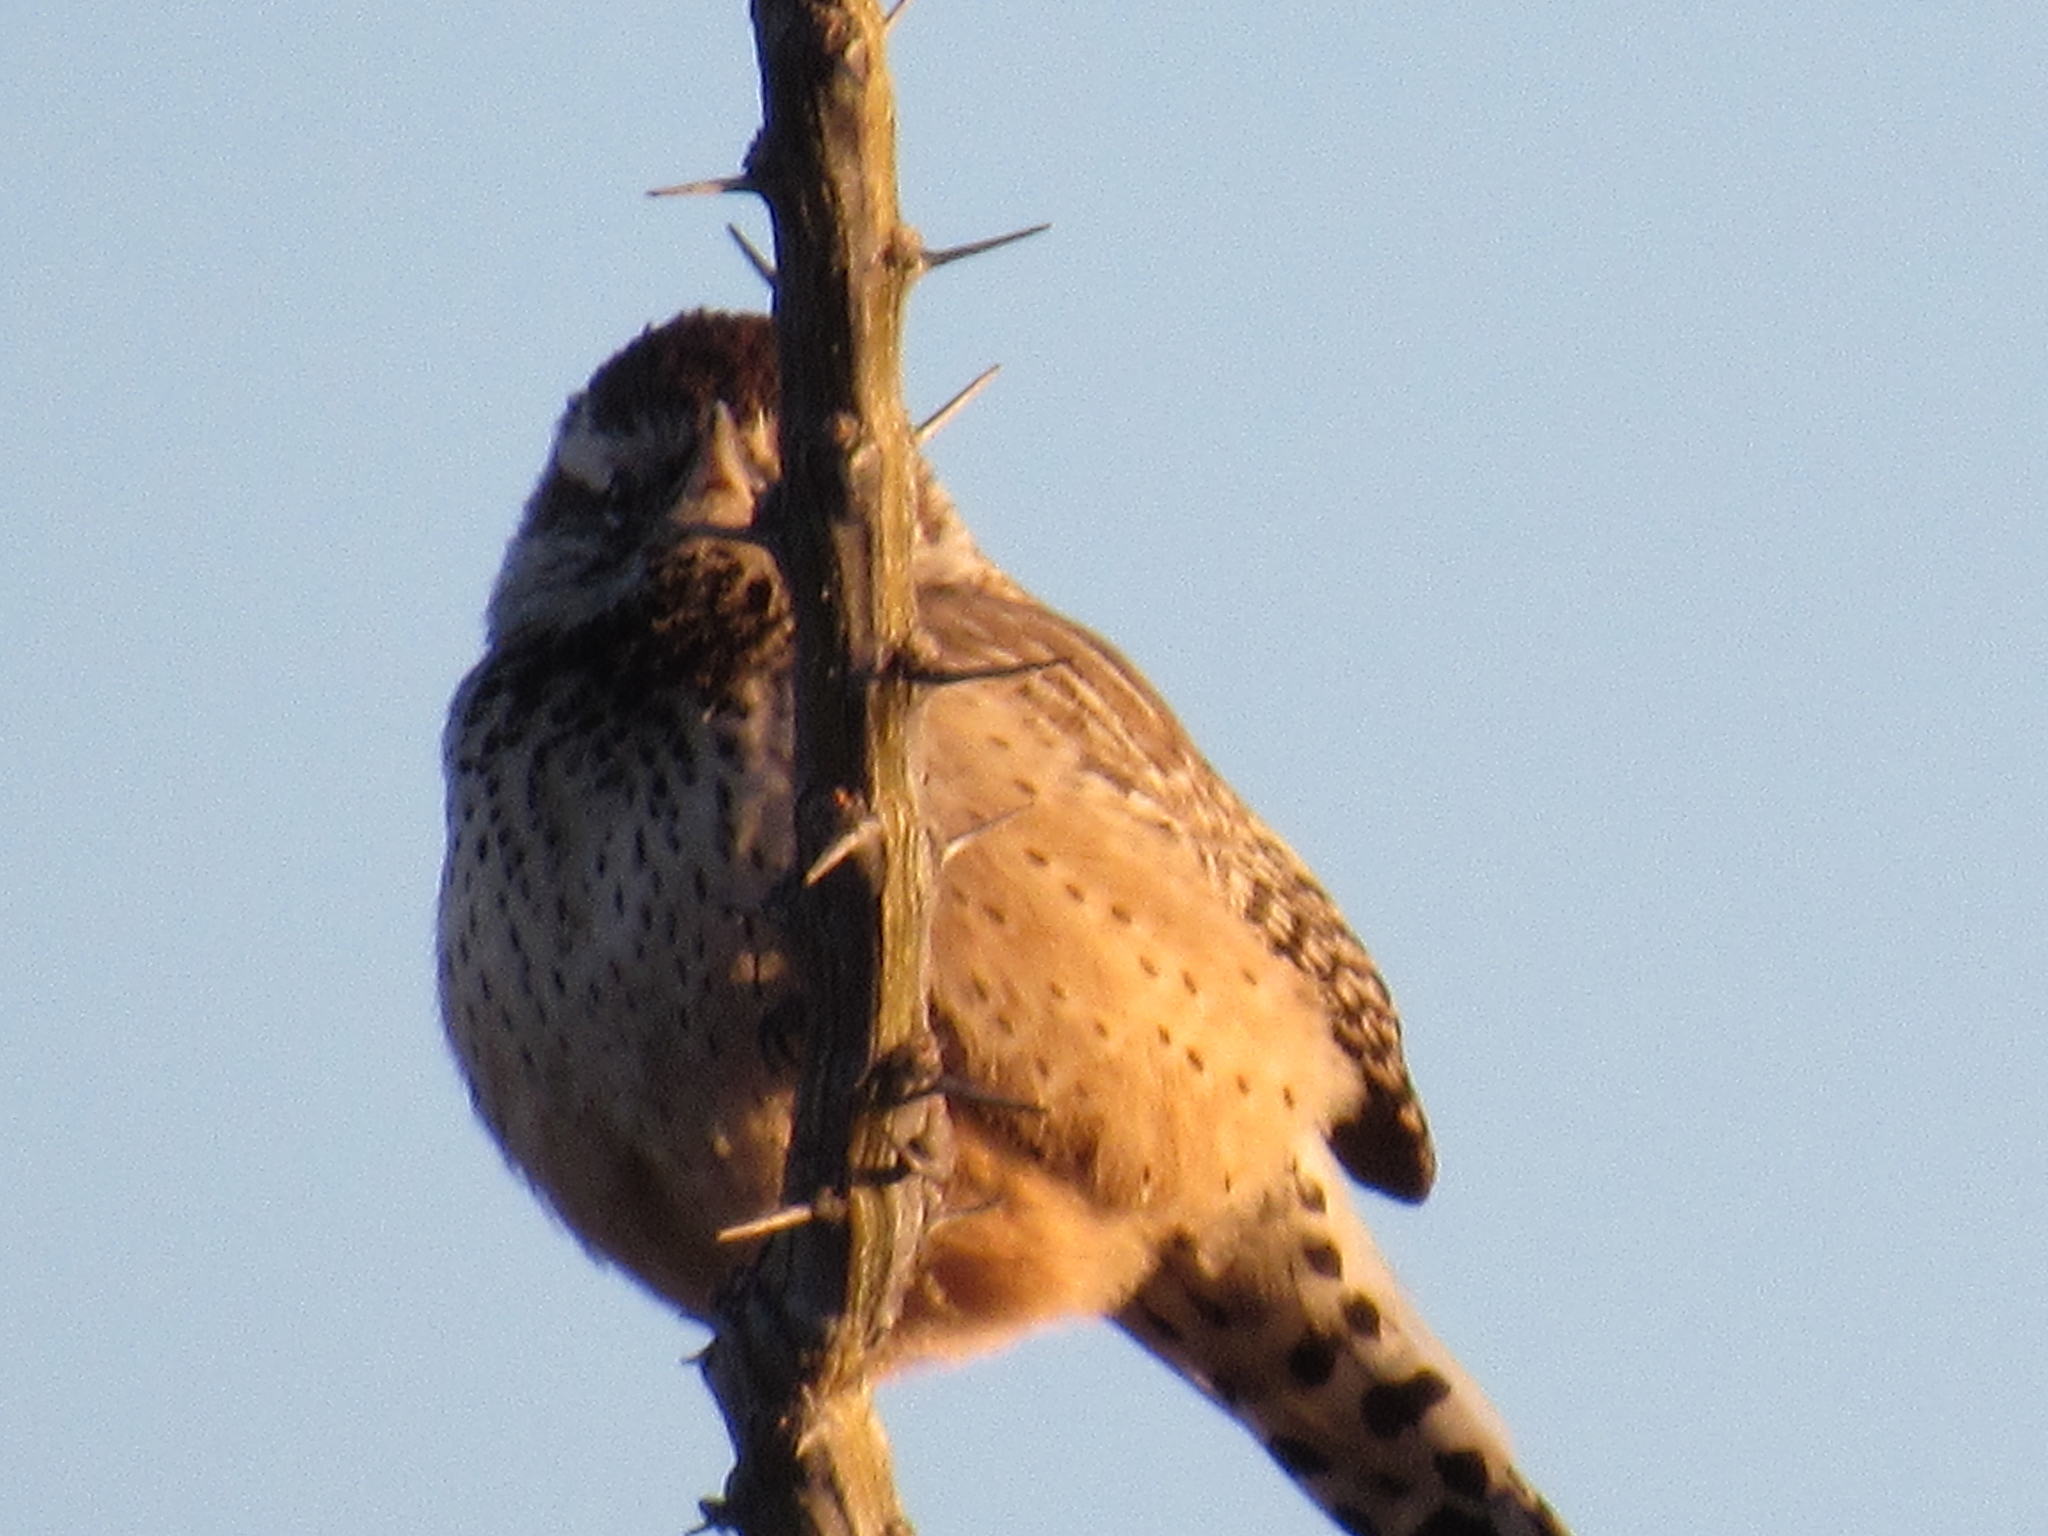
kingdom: Animalia
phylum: Chordata
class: Aves
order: Passeriformes
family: Troglodytidae
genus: Campylorhynchus
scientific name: Campylorhynchus brunneicapillus
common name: Cactus wren
